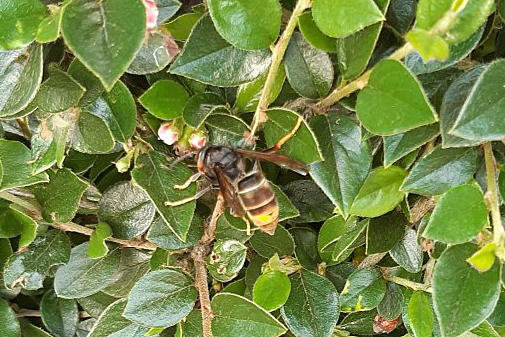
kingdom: Animalia
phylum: Arthropoda
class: Insecta
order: Hymenoptera
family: Vespidae
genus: Vespa
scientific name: Vespa velutina
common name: Asian hornet
